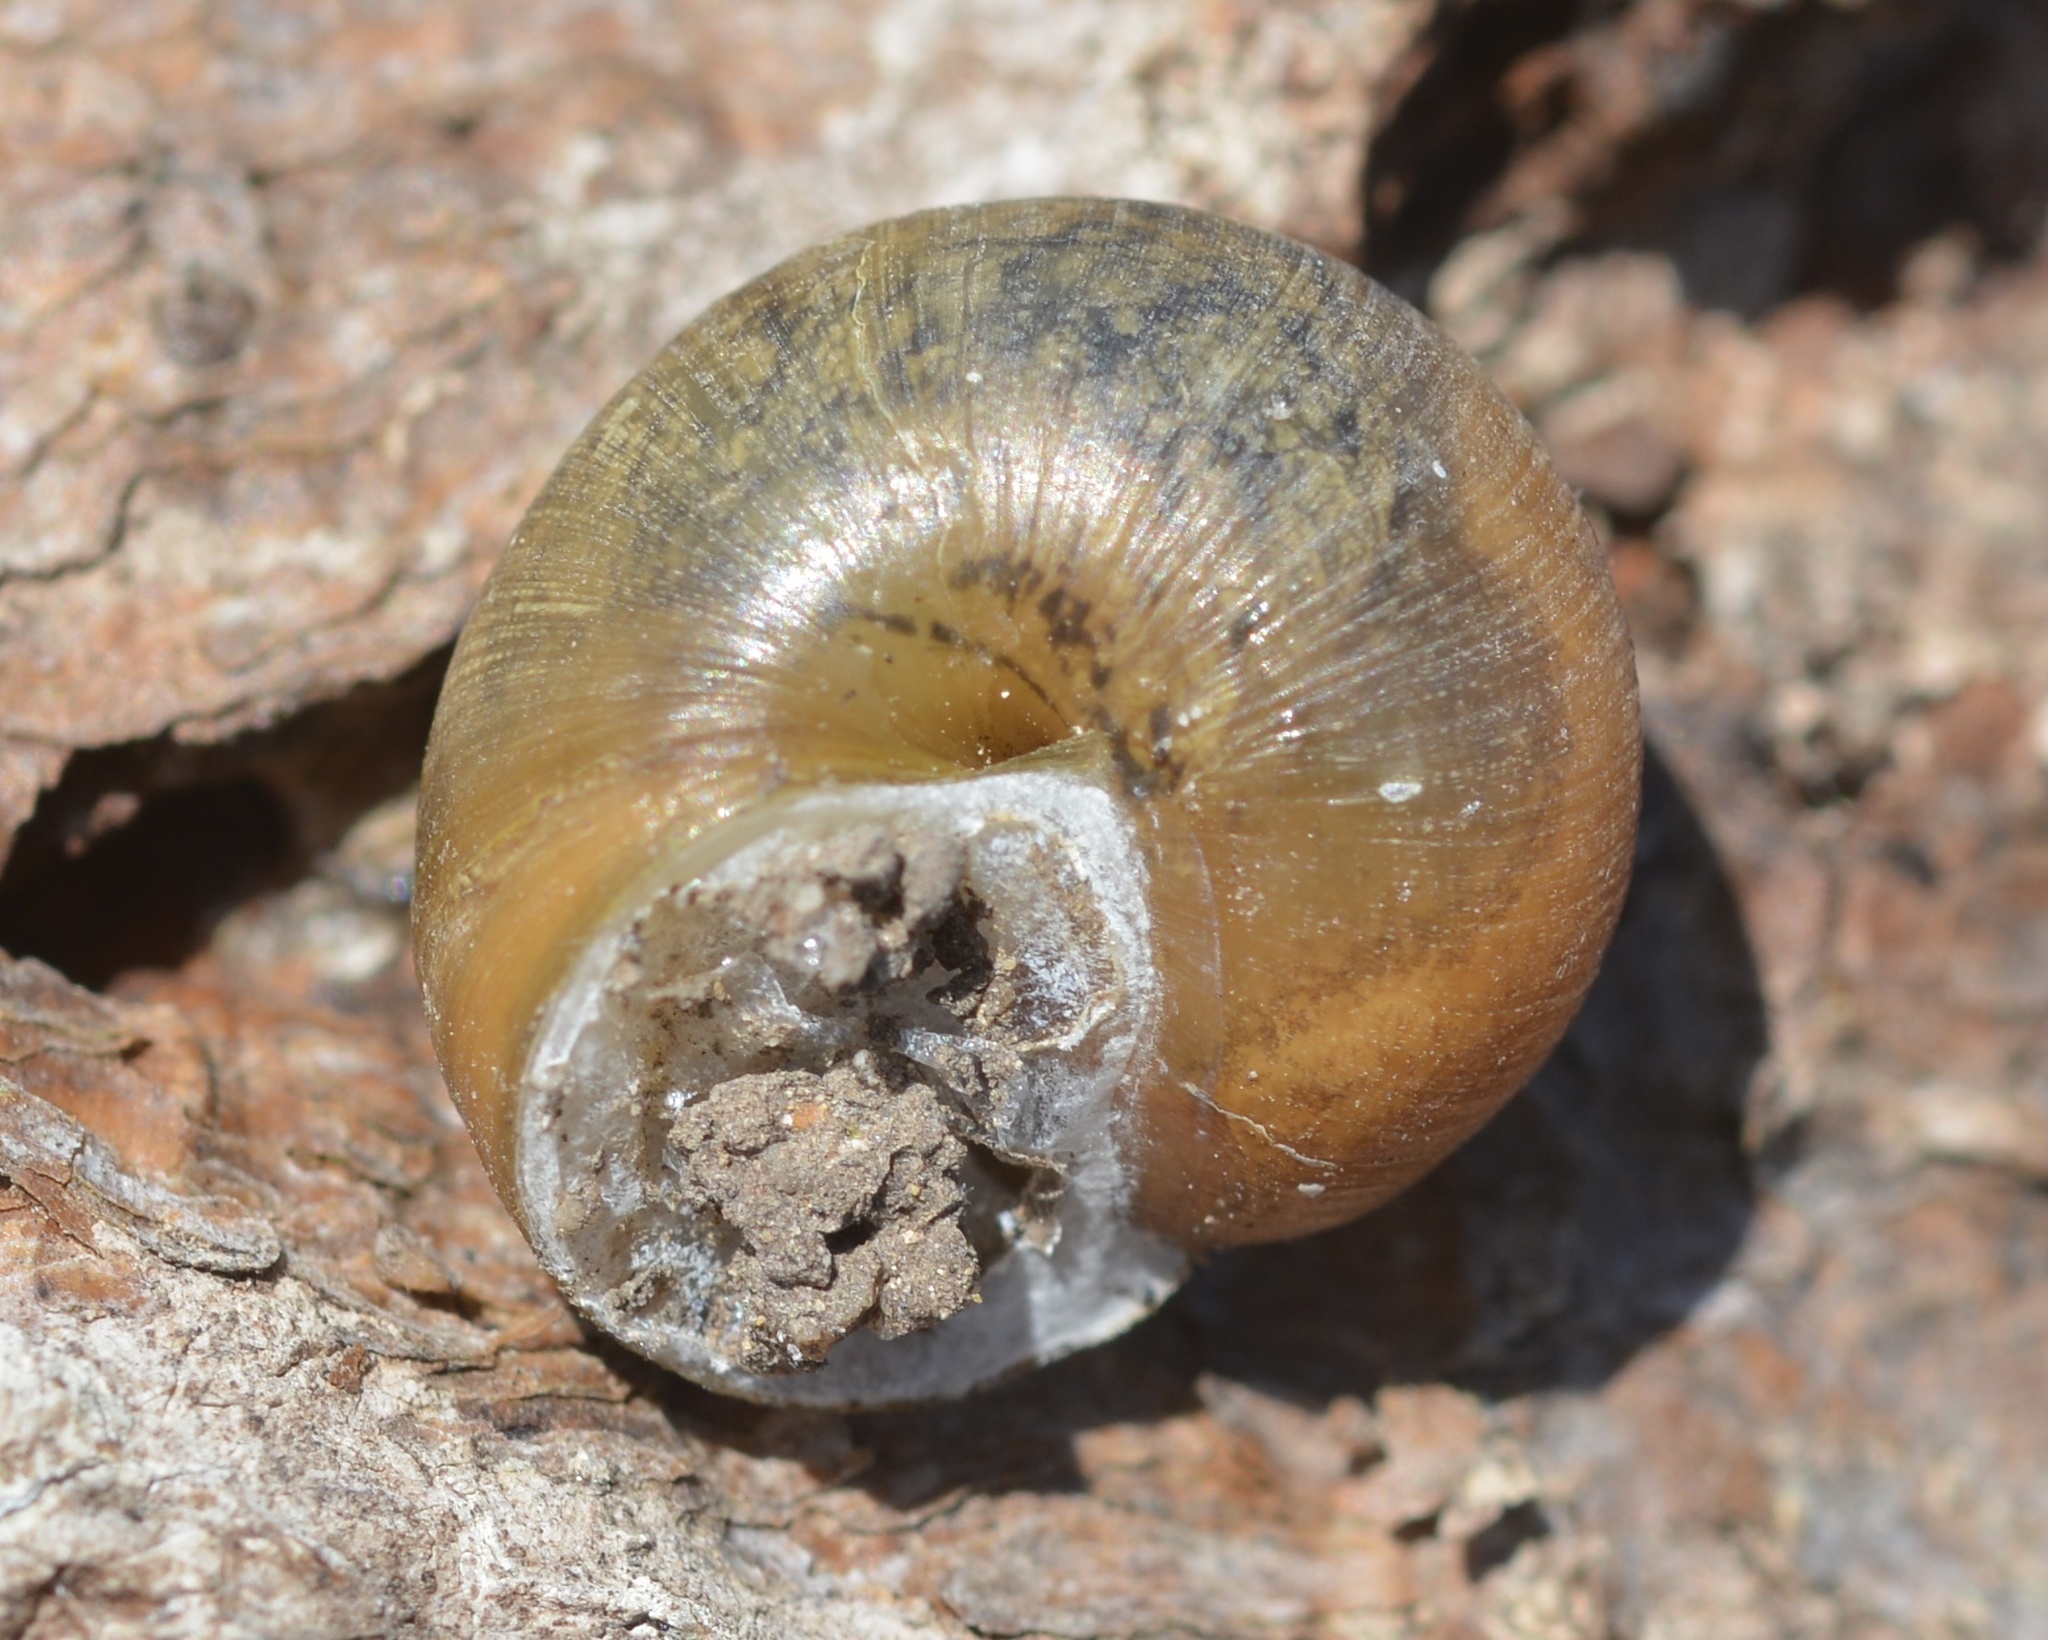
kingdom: Animalia
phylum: Mollusca
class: Gastropoda
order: Stylommatophora
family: Xanthonychidae
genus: Helminthoglypta
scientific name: Helminthoglypta nickliniana
